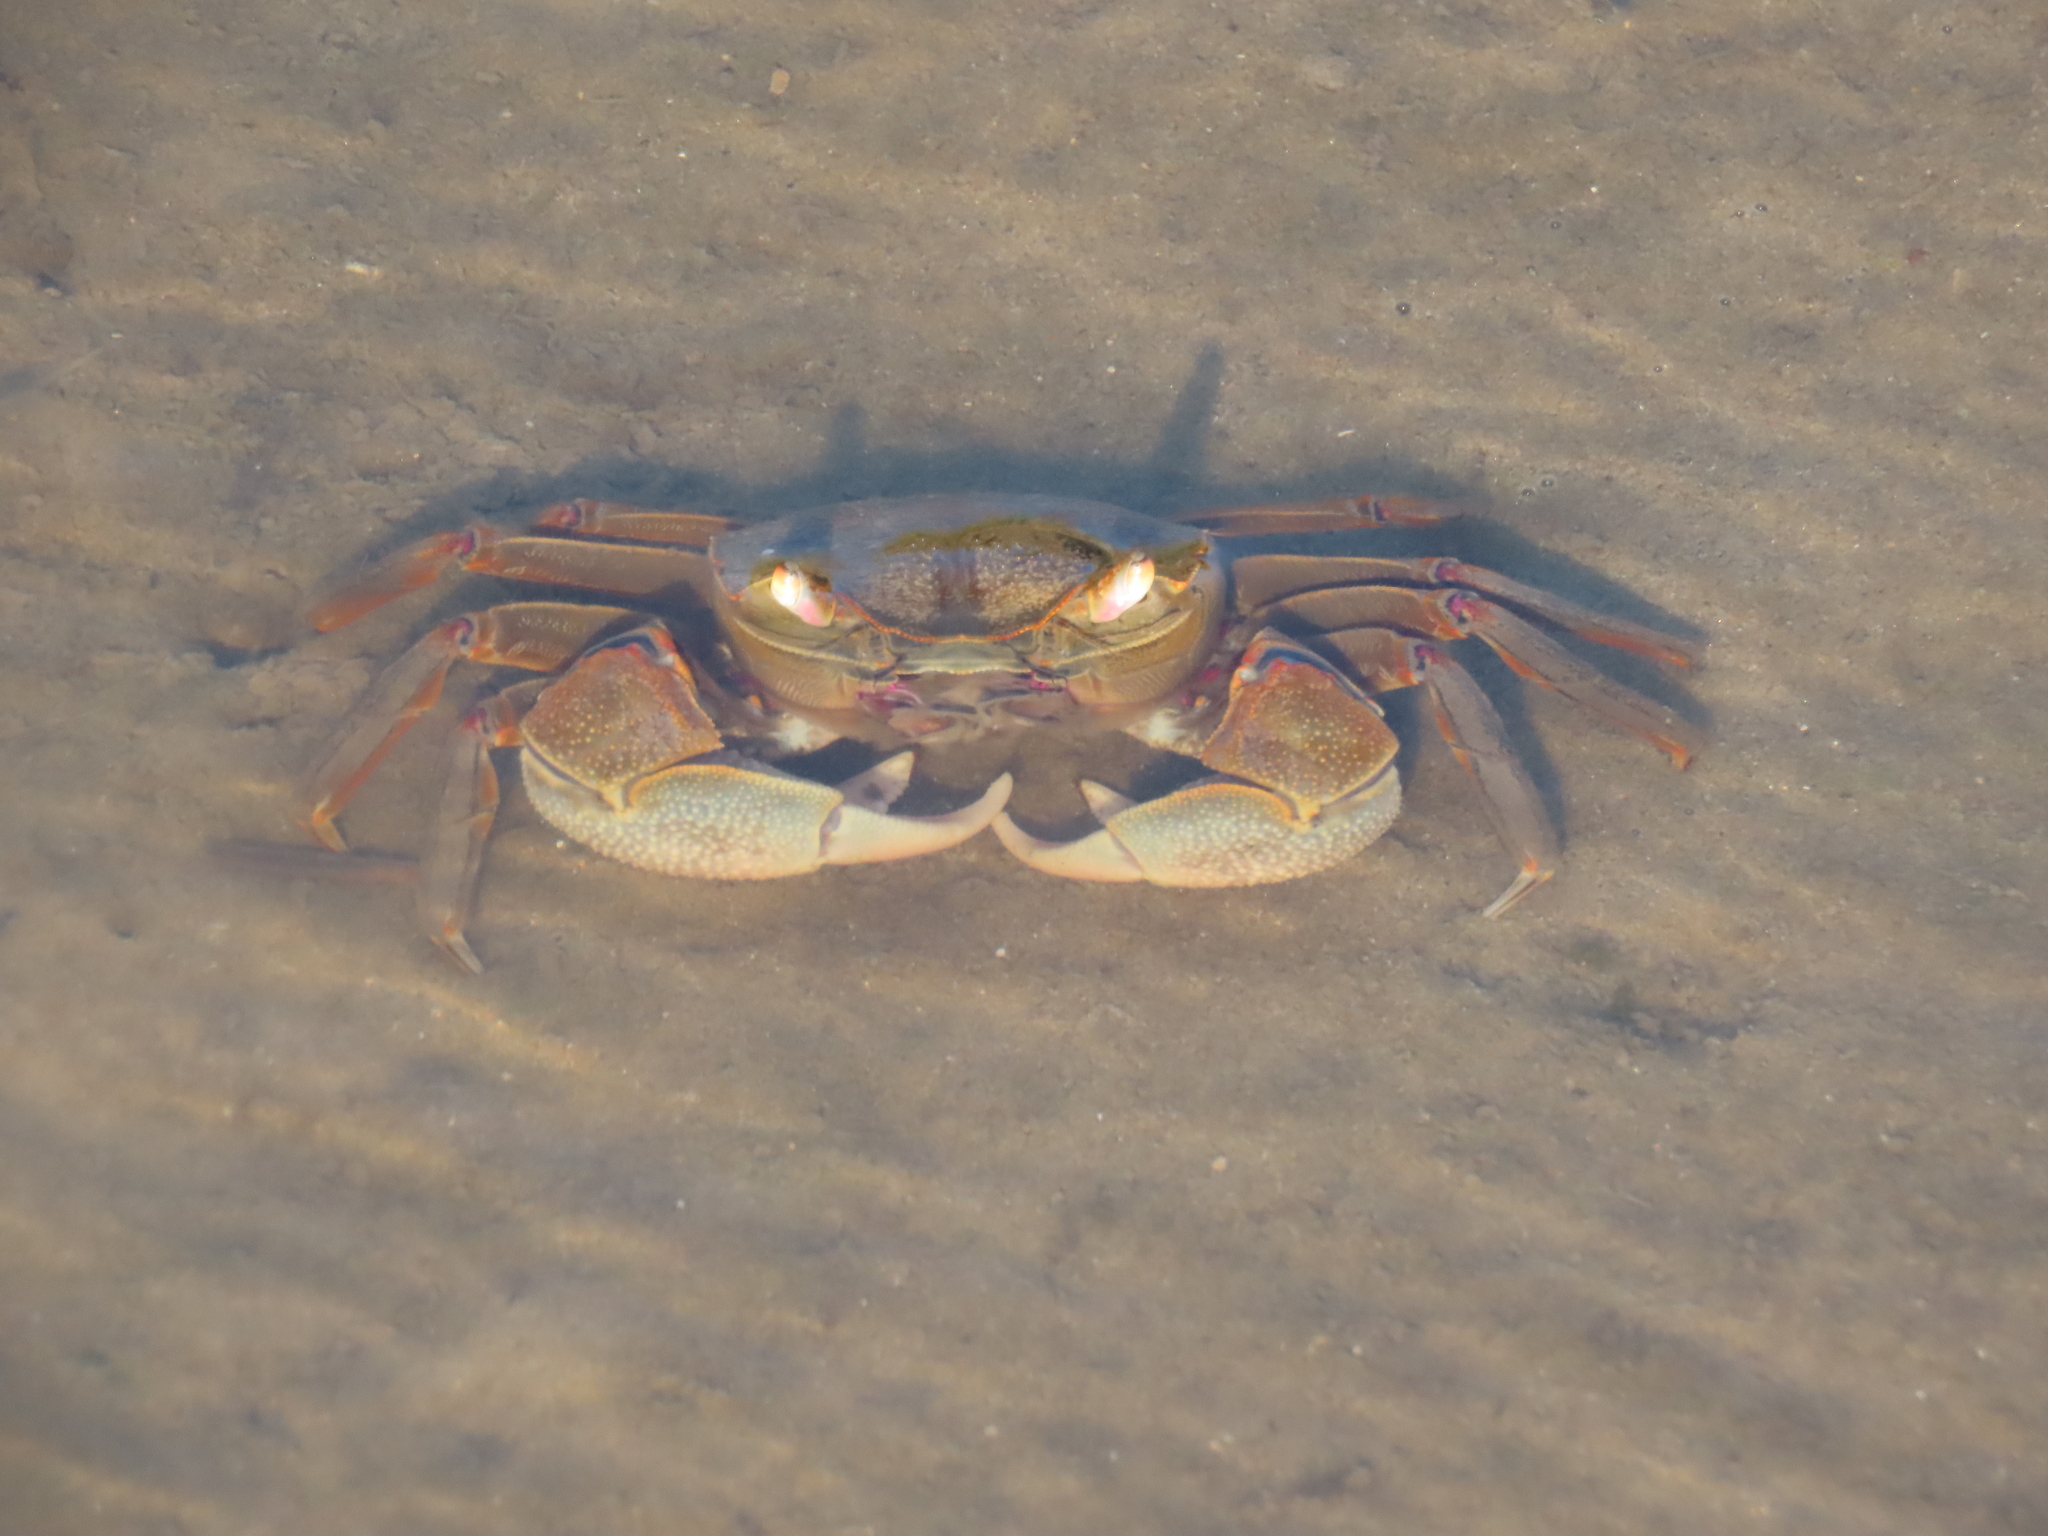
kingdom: Animalia
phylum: Arthropoda
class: Malacostraca
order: Decapoda
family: Varunidae
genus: Neohelice
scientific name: Neohelice granulata
